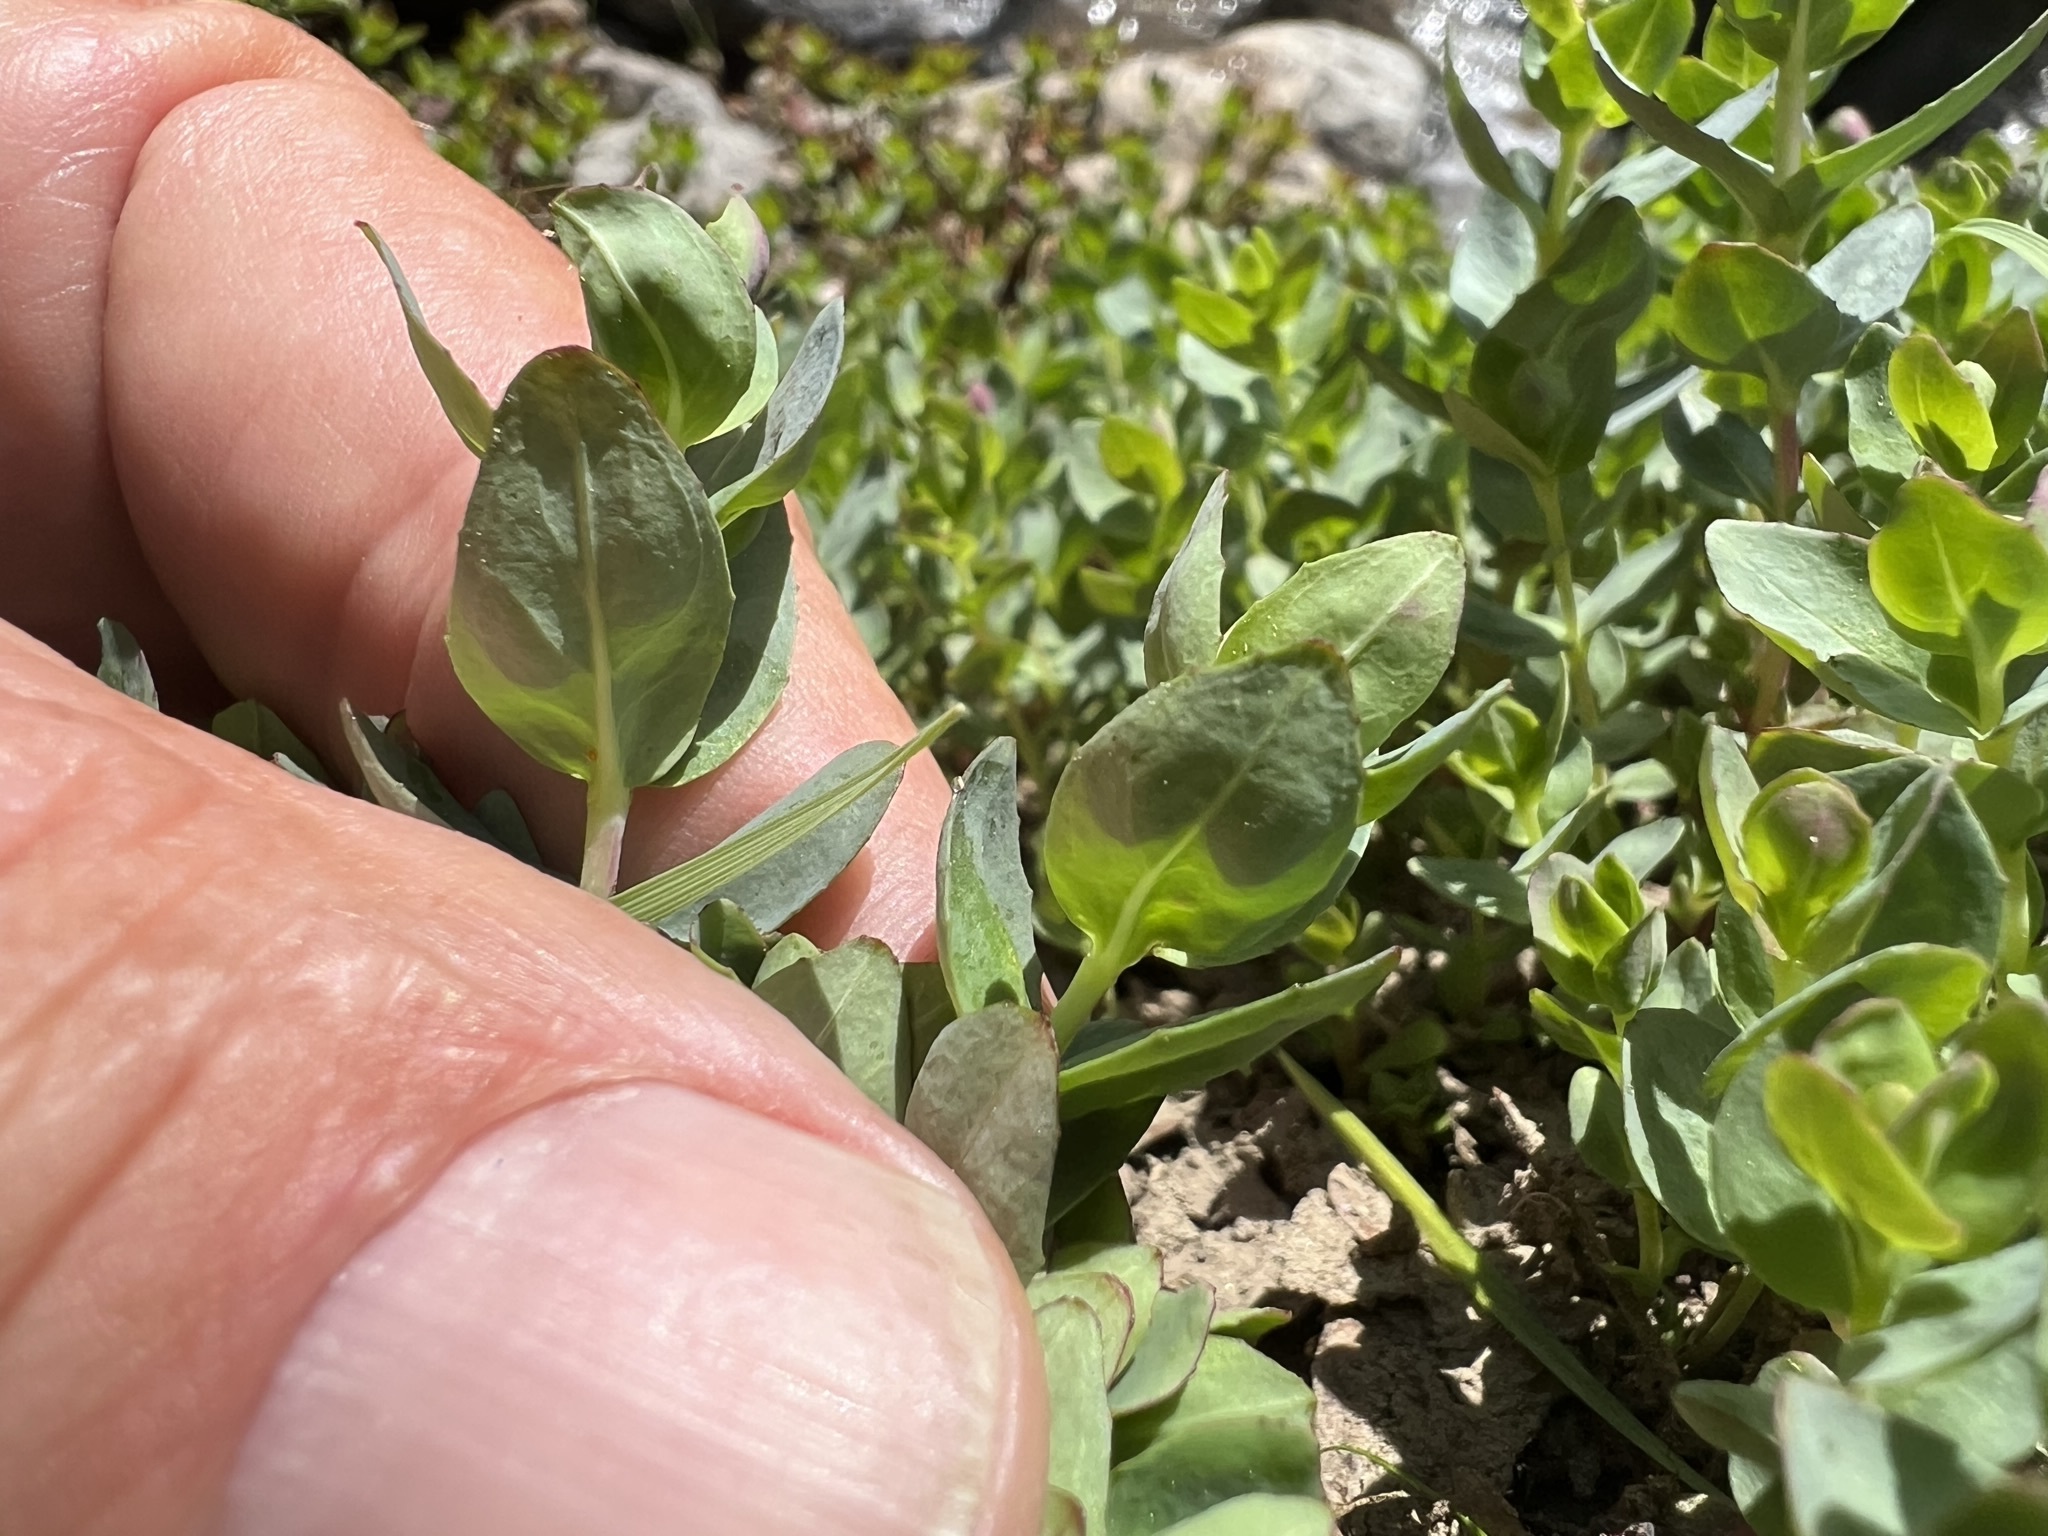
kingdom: Plantae
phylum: Tracheophyta
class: Magnoliopsida
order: Myrtales
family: Onagraceae
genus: Epilobium
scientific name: Epilobium obcordatum
